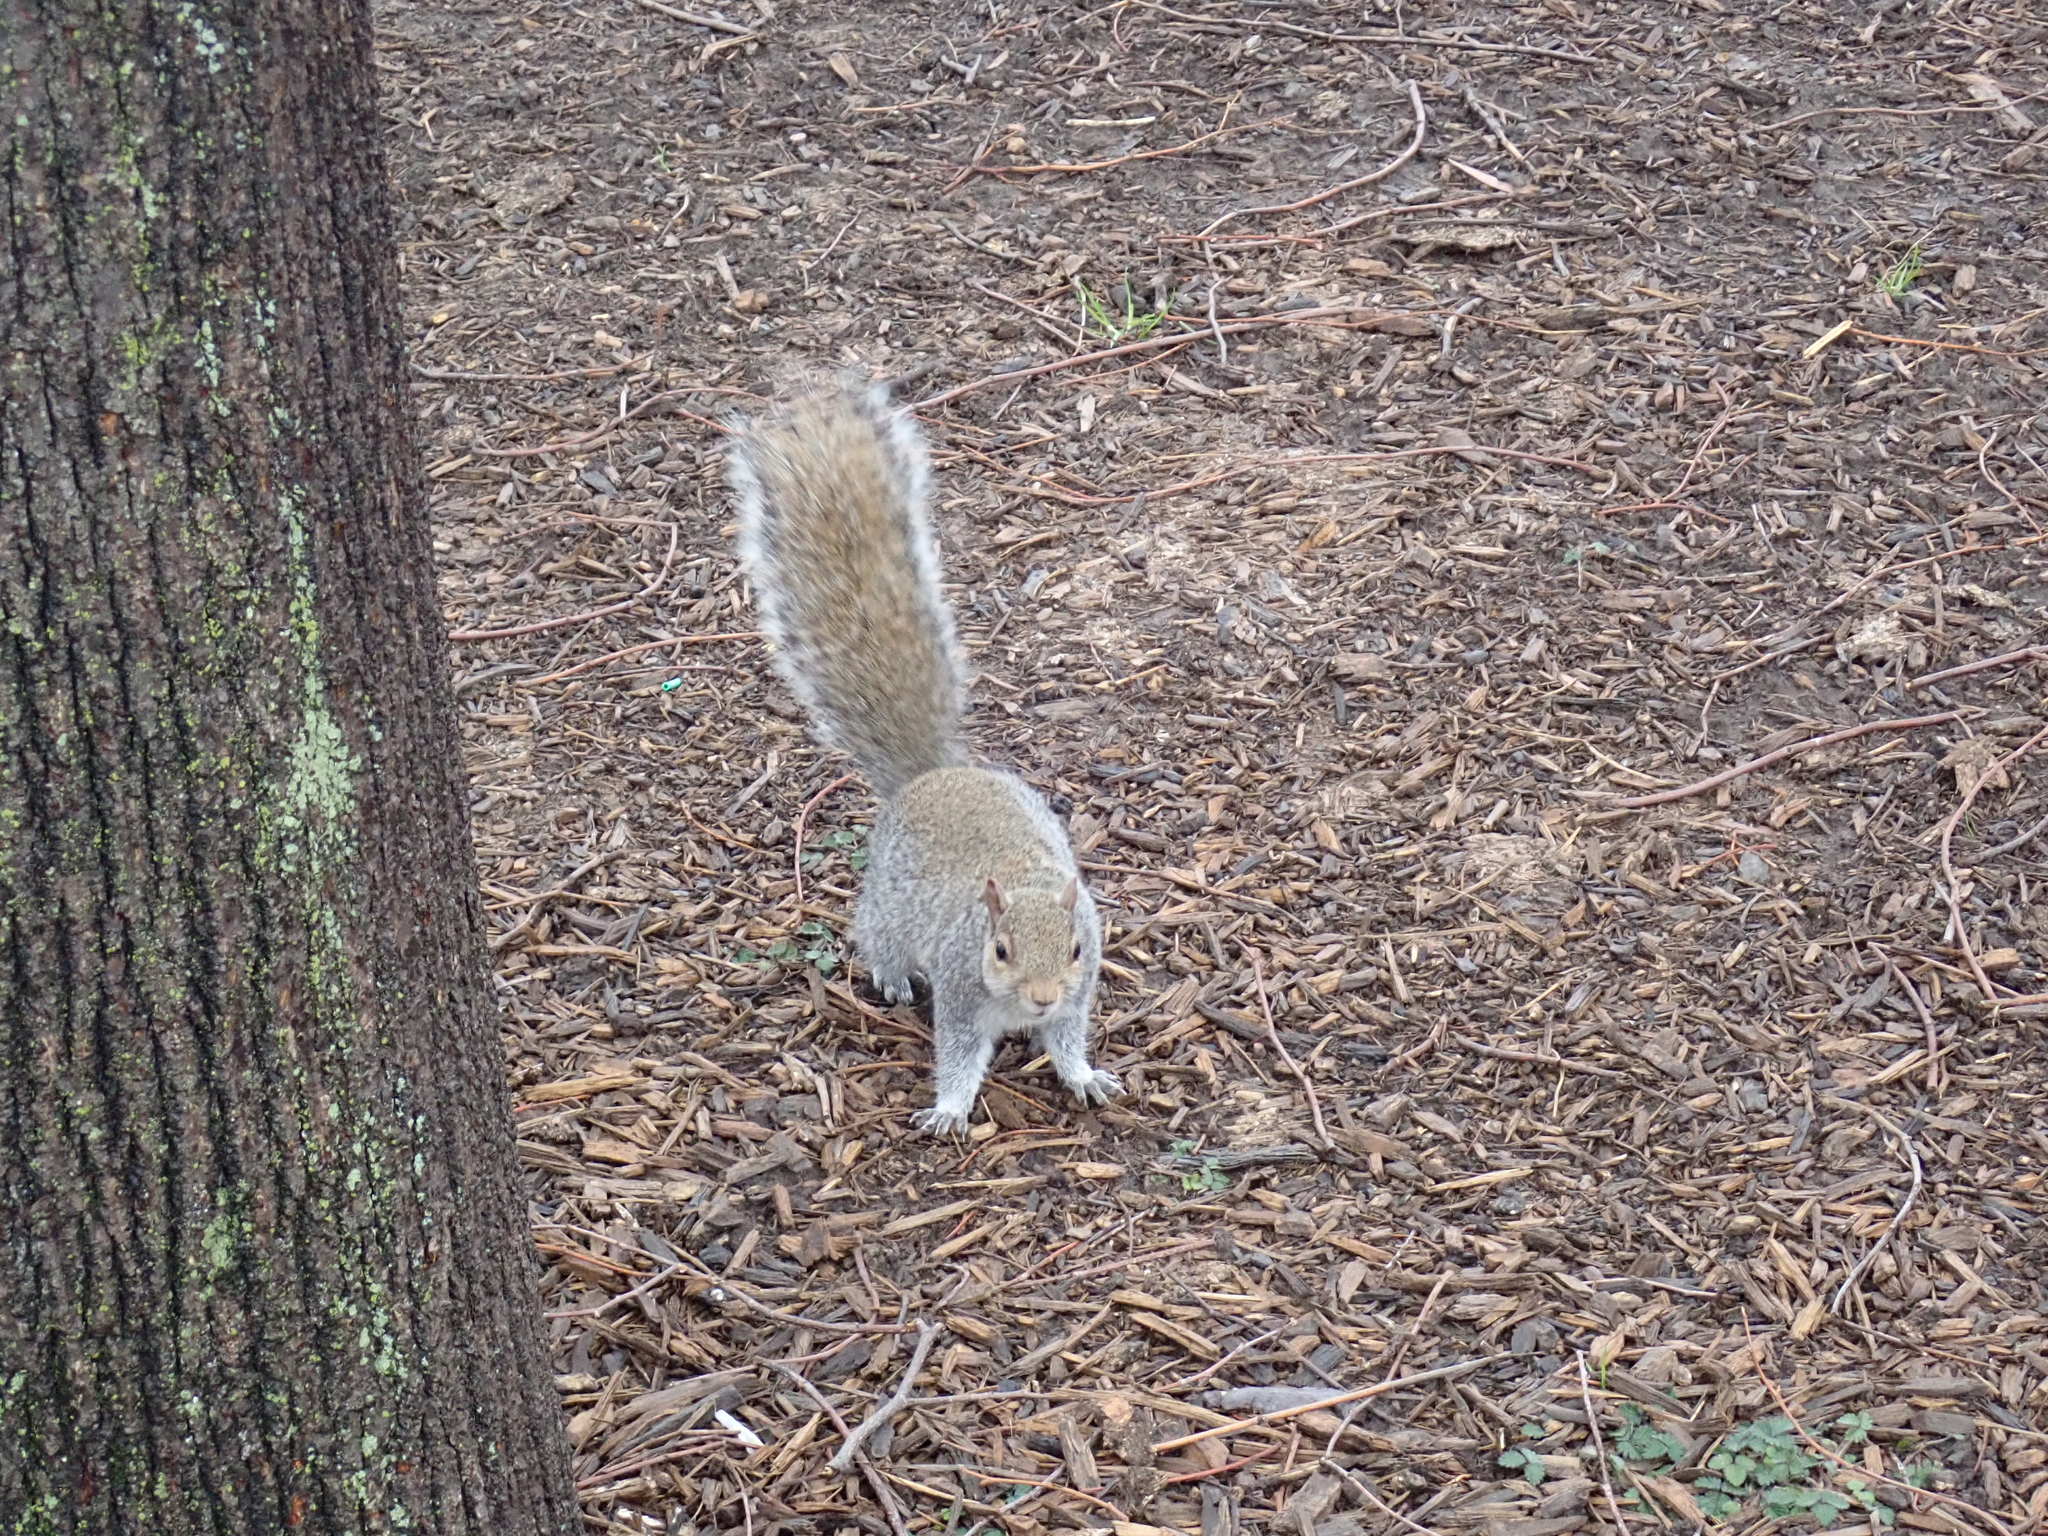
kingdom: Animalia
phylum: Chordata
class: Mammalia
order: Rodentia
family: Sciuridae
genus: Sciurus
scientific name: Sciurus carolinensis
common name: Eastern gray squirrel
